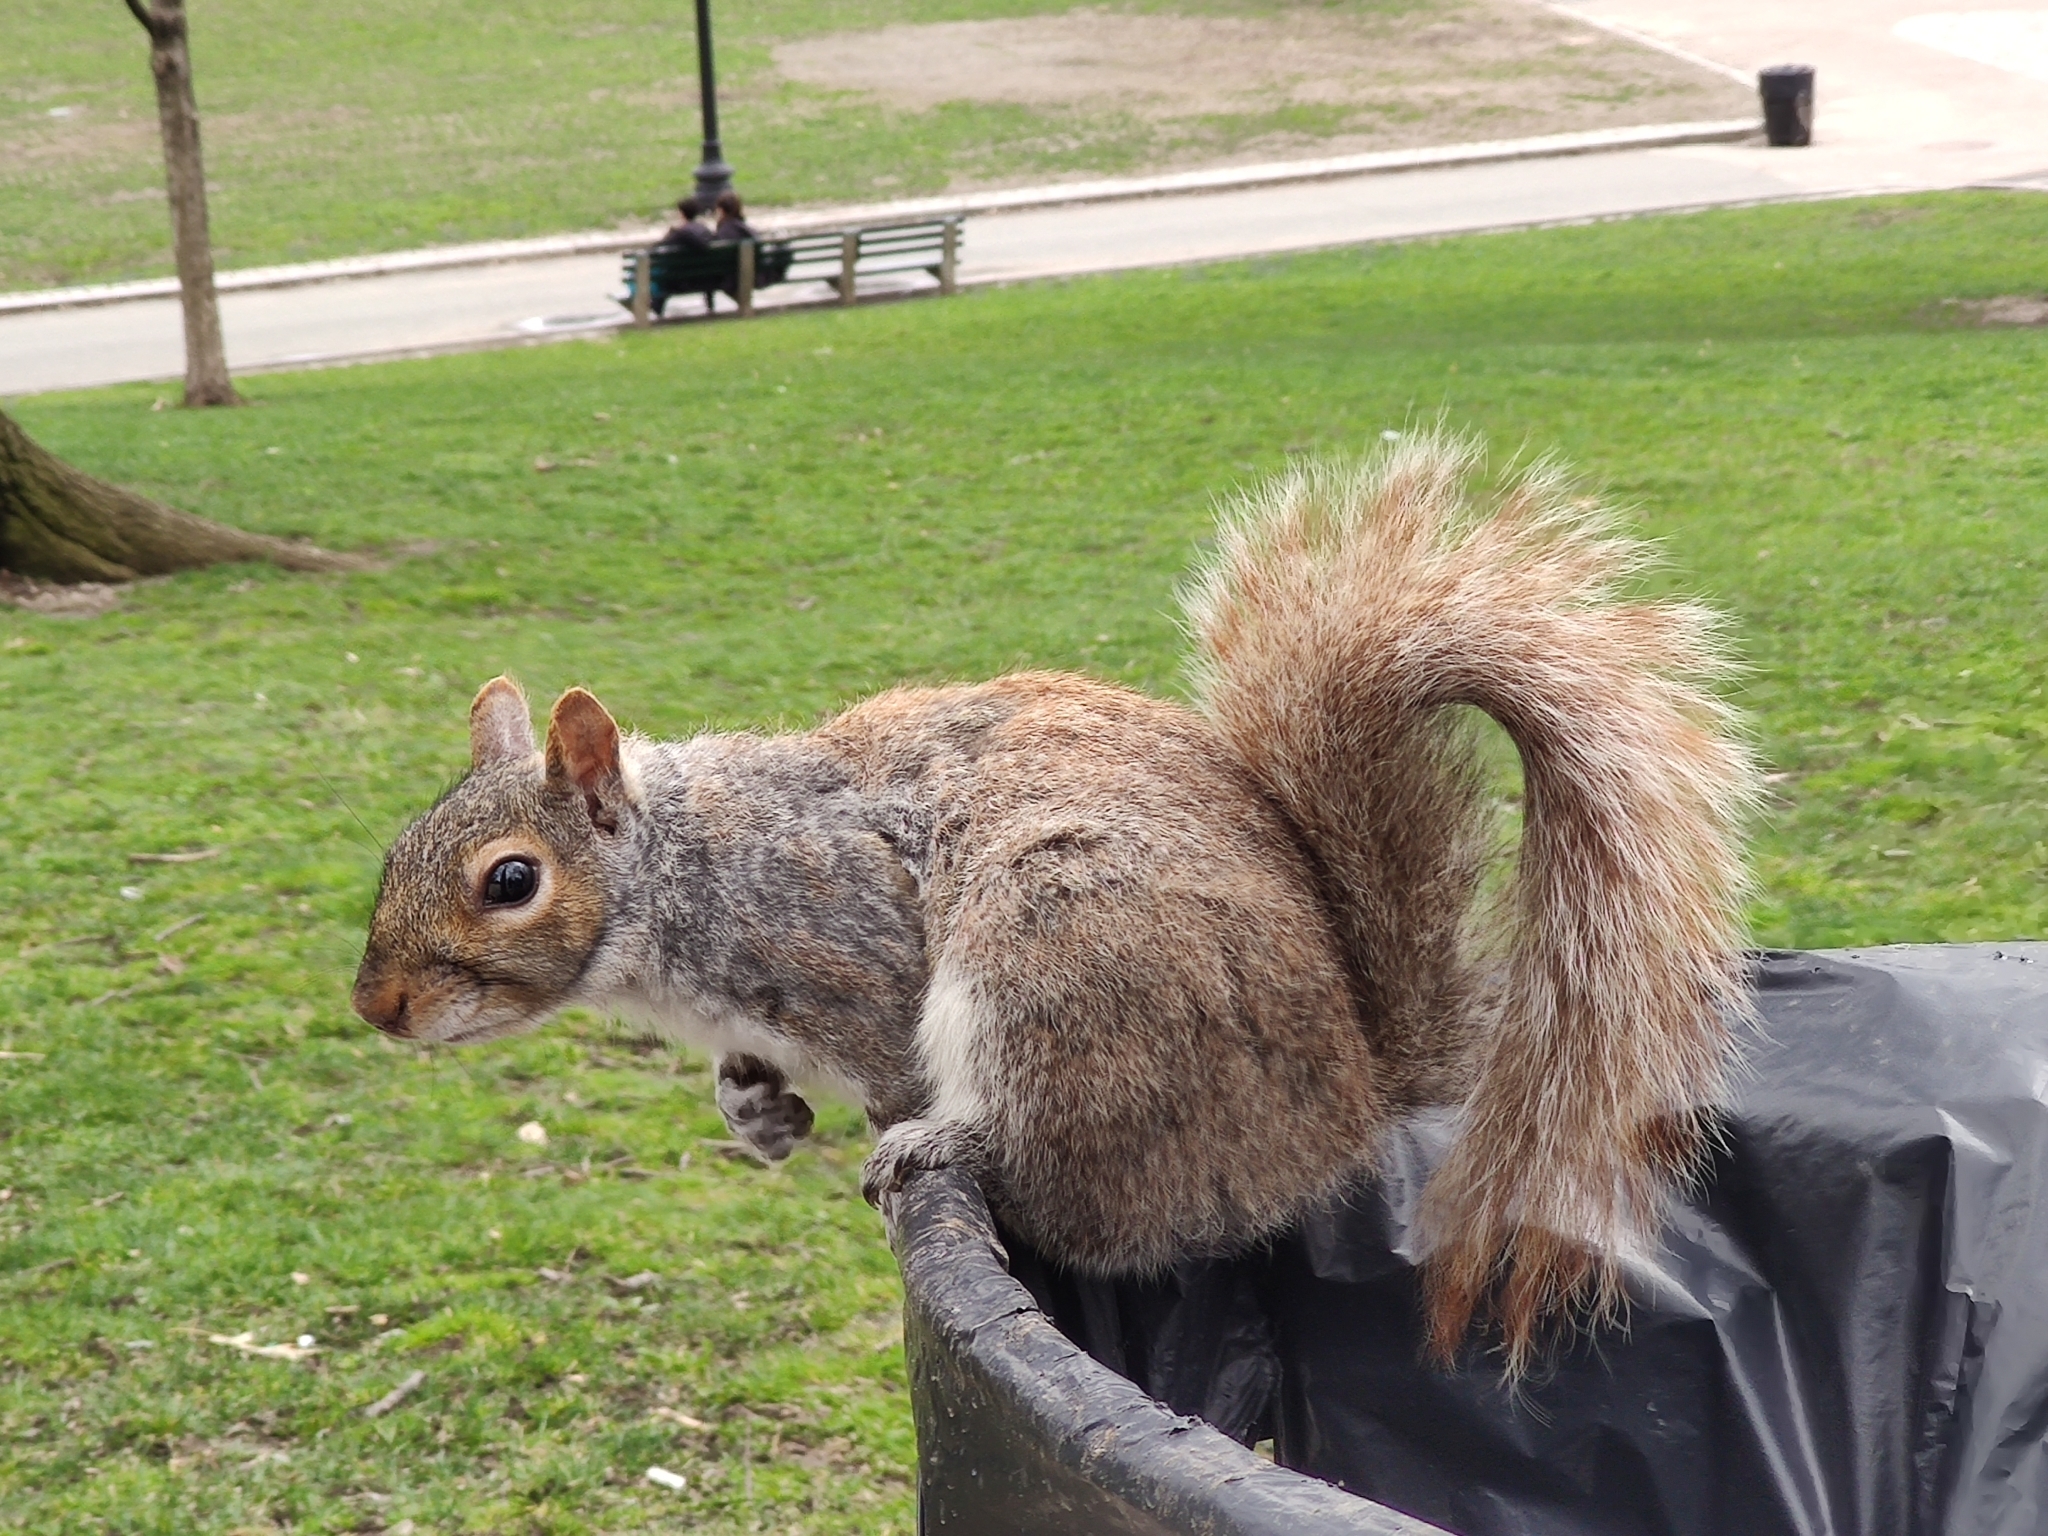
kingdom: Animalia
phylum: Chordata
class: Mammalia
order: Rodentia
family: Sciuridae
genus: Sciurus
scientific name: Sciurus carolinensis
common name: Eastern gray squirrel
